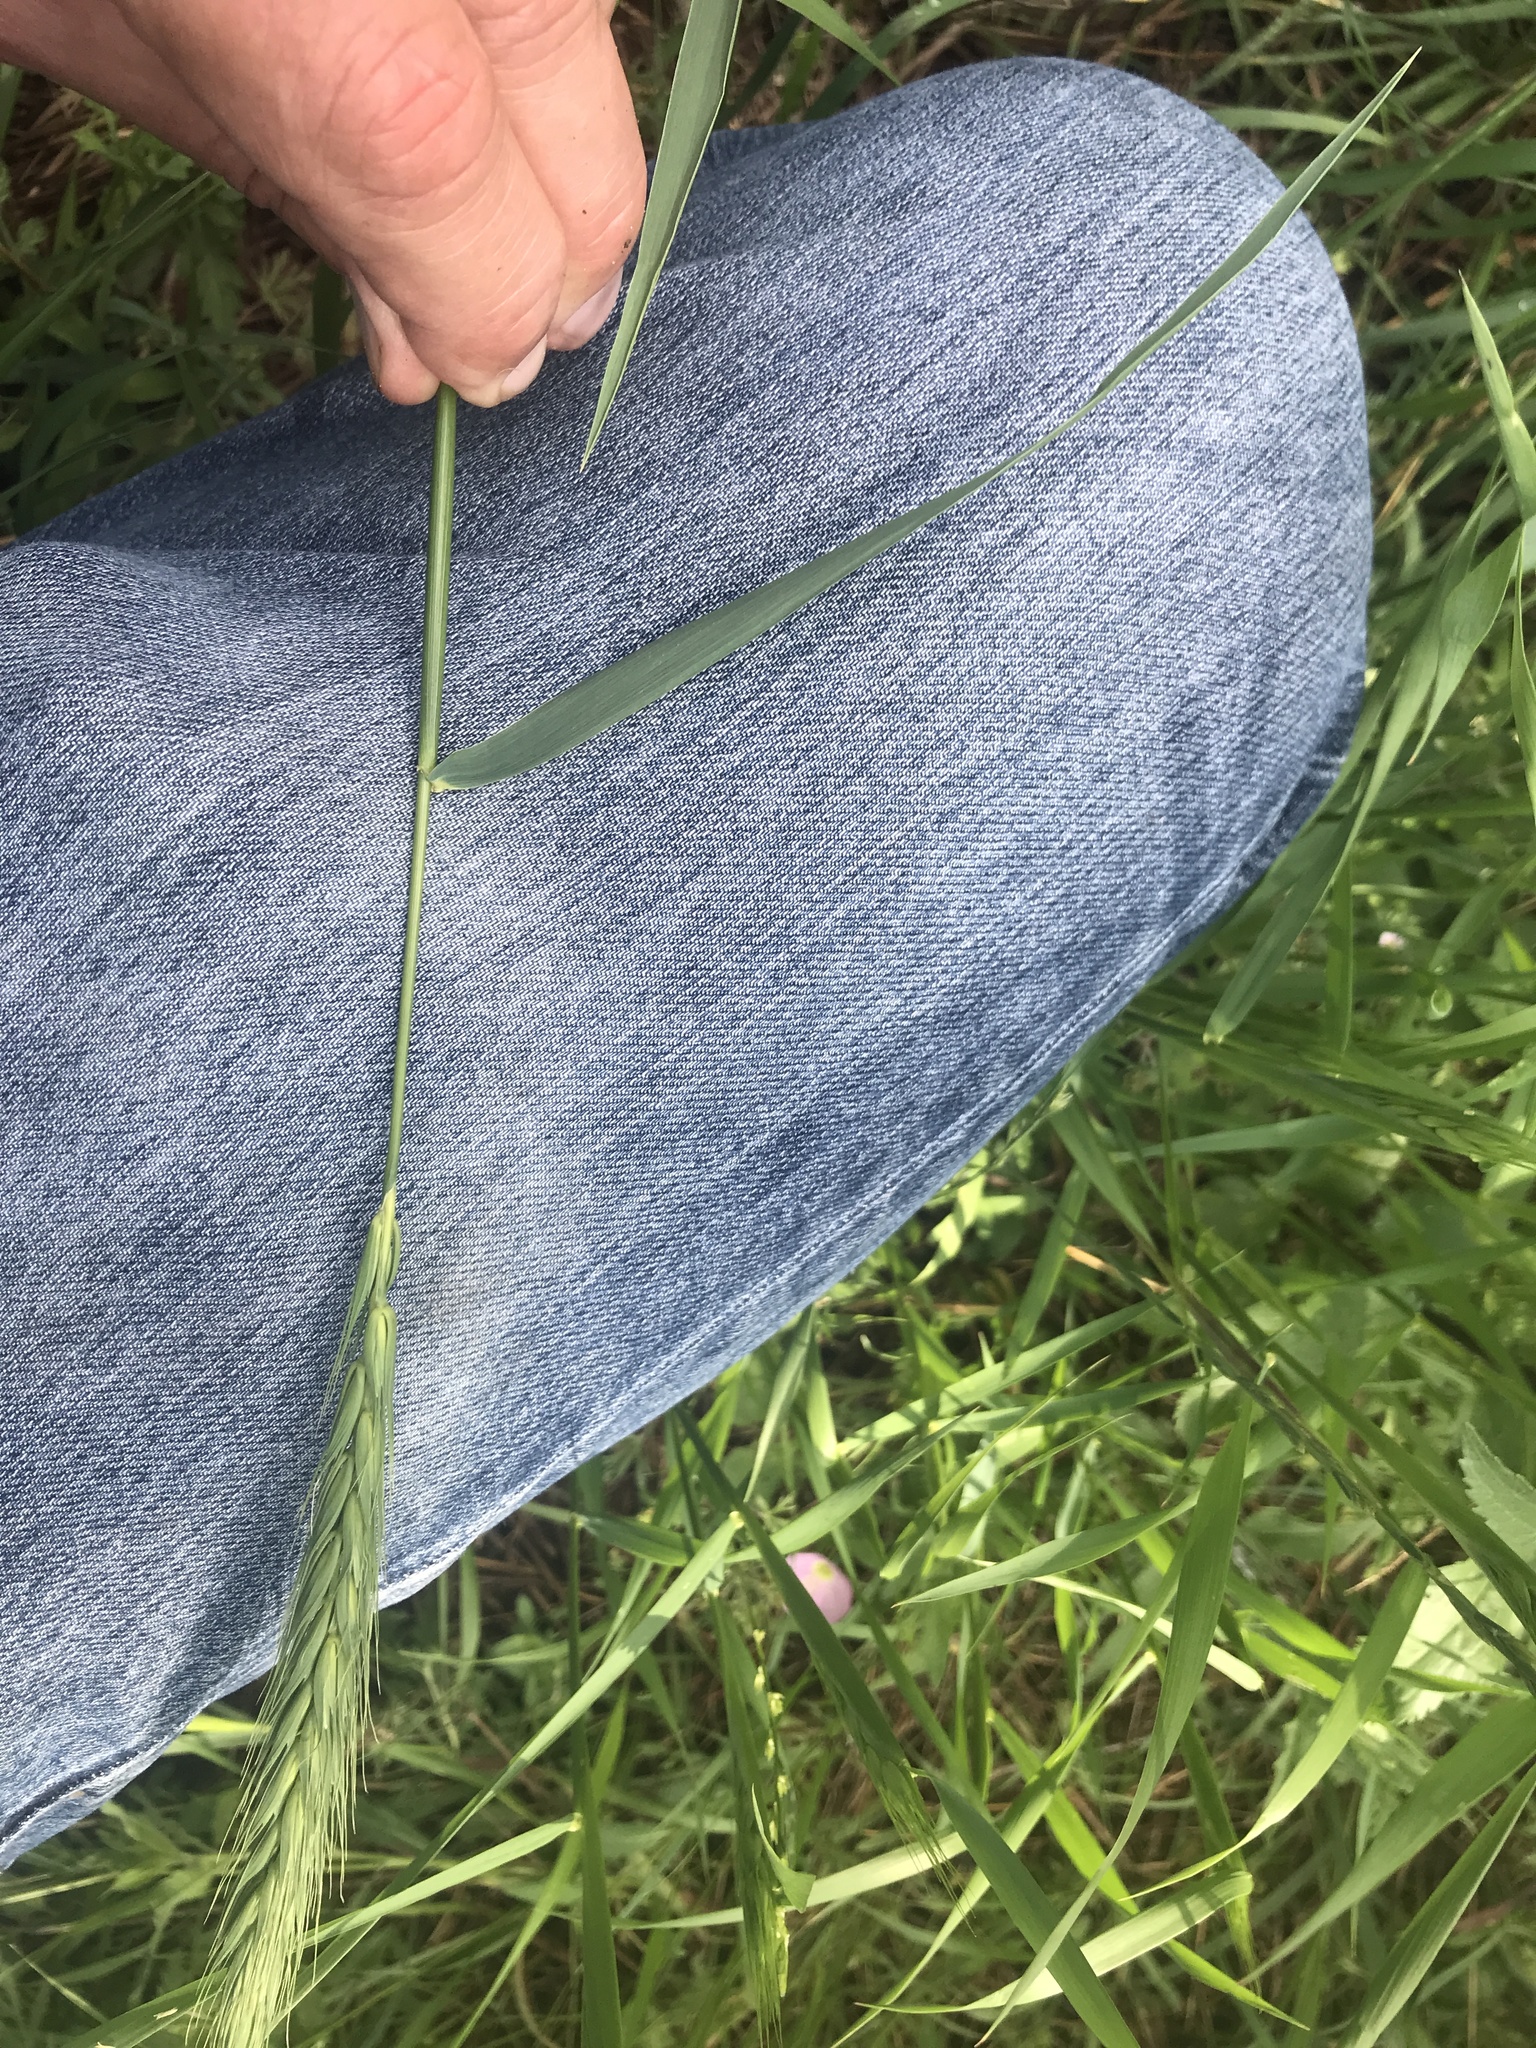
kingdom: Plantae
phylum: Tracheophyta
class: Liliopsida
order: Poales
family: Poaceae
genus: Elymus
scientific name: Elymus virginicus
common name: Common eastern wildrye
